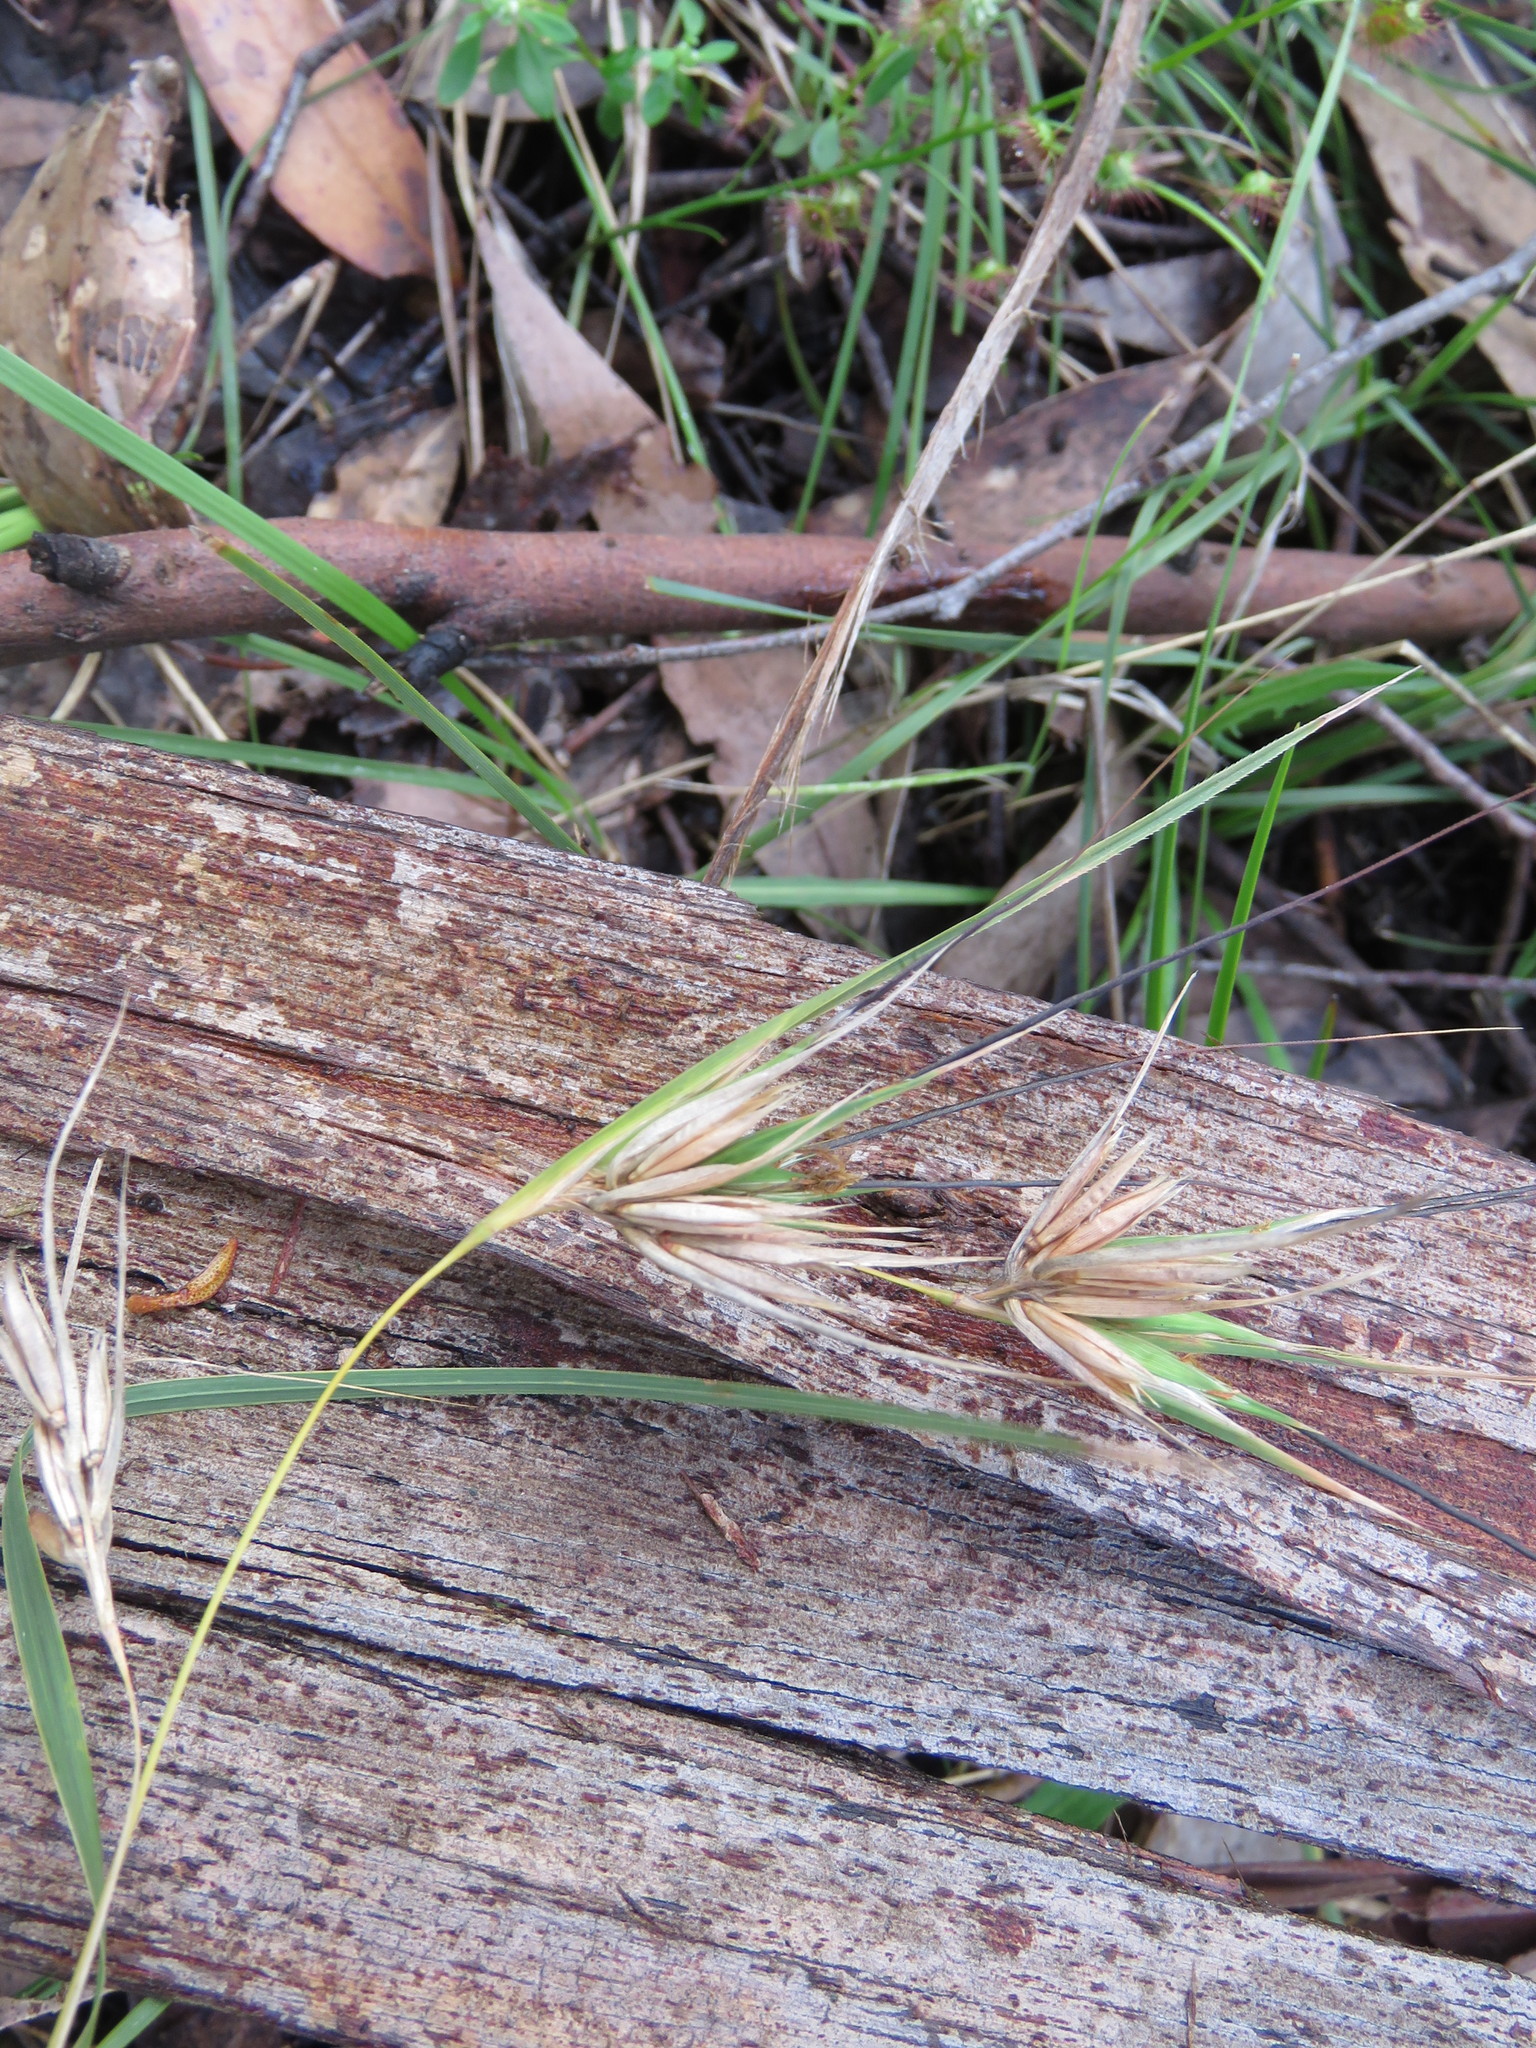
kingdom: Plantae
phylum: Tracheophyta
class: Liliopsida
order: Poales
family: Poaceae
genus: Themeda
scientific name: Themeda triandra
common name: Kangaroo grass
